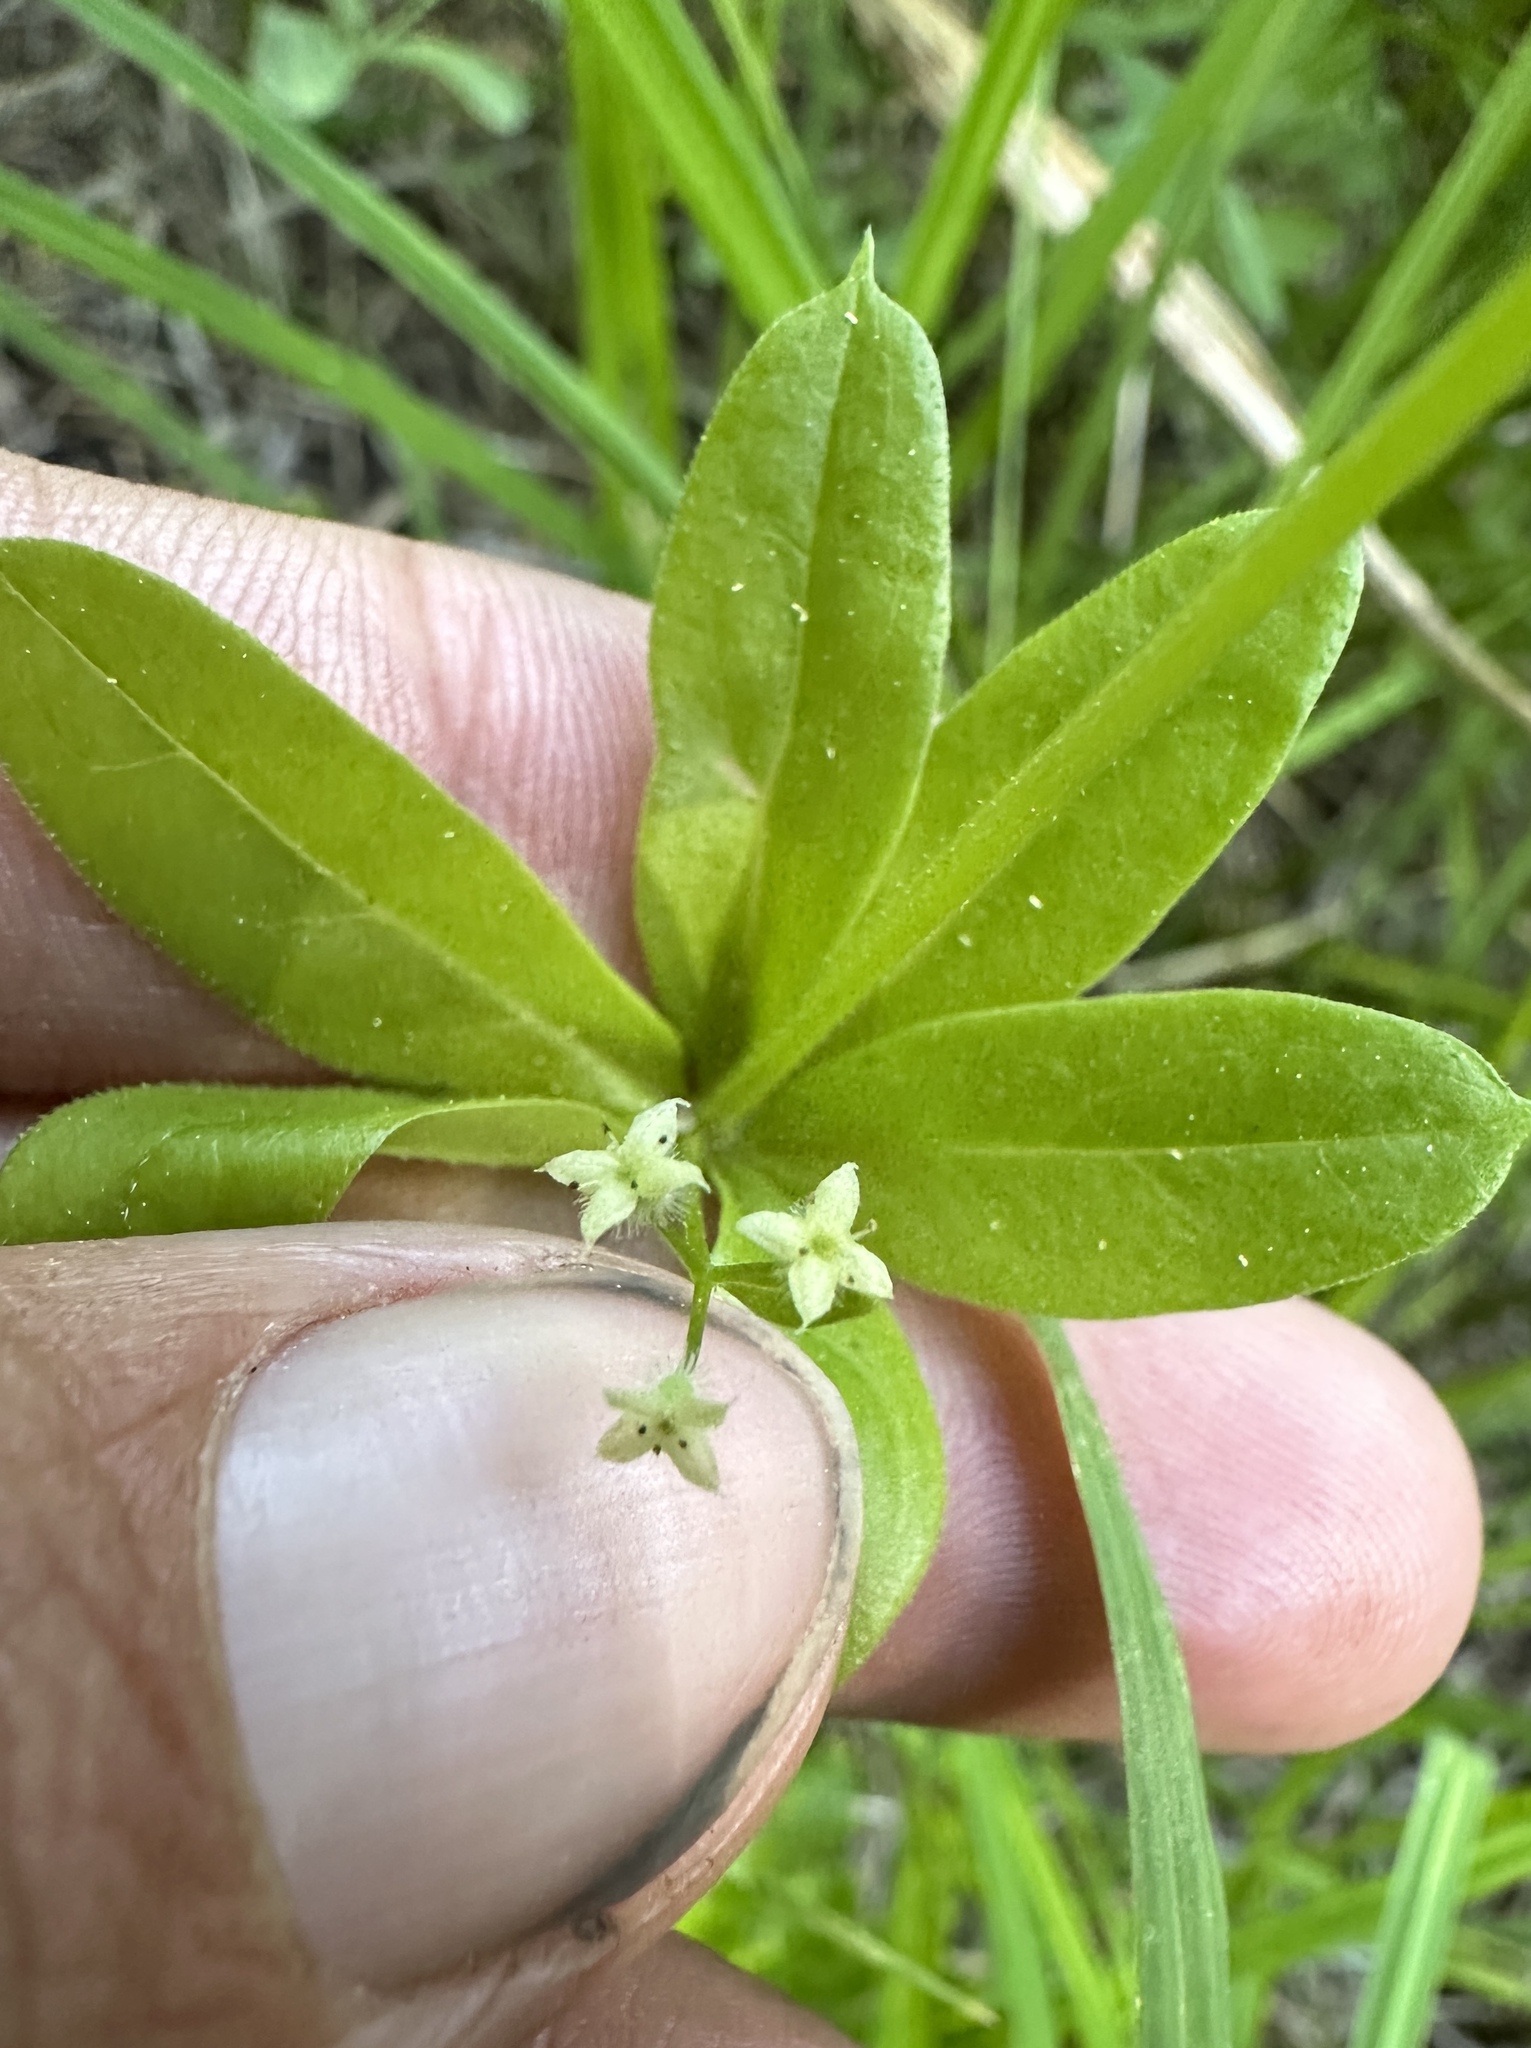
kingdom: Plantae
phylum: Tracheophyta
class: Magnoliopsida
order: Gentianales
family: Rubiaceae
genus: Galium
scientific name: Galium triflorum
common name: Fragrant bedstraw
